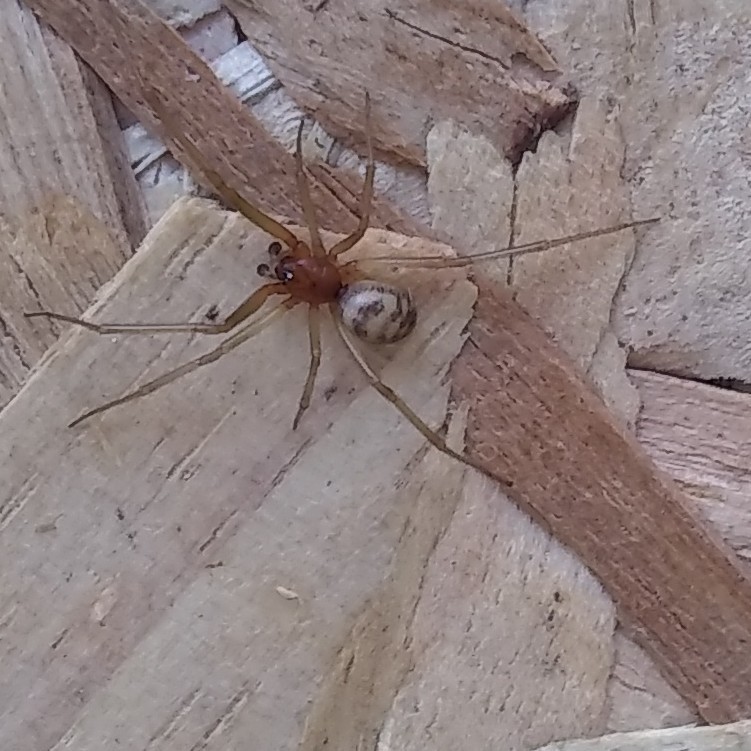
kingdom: Animalia
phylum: Arthropoda
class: Arachnida
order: Araneae
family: Theridiidae
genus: Steatoda
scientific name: Steatoda grossa
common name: False black widow
